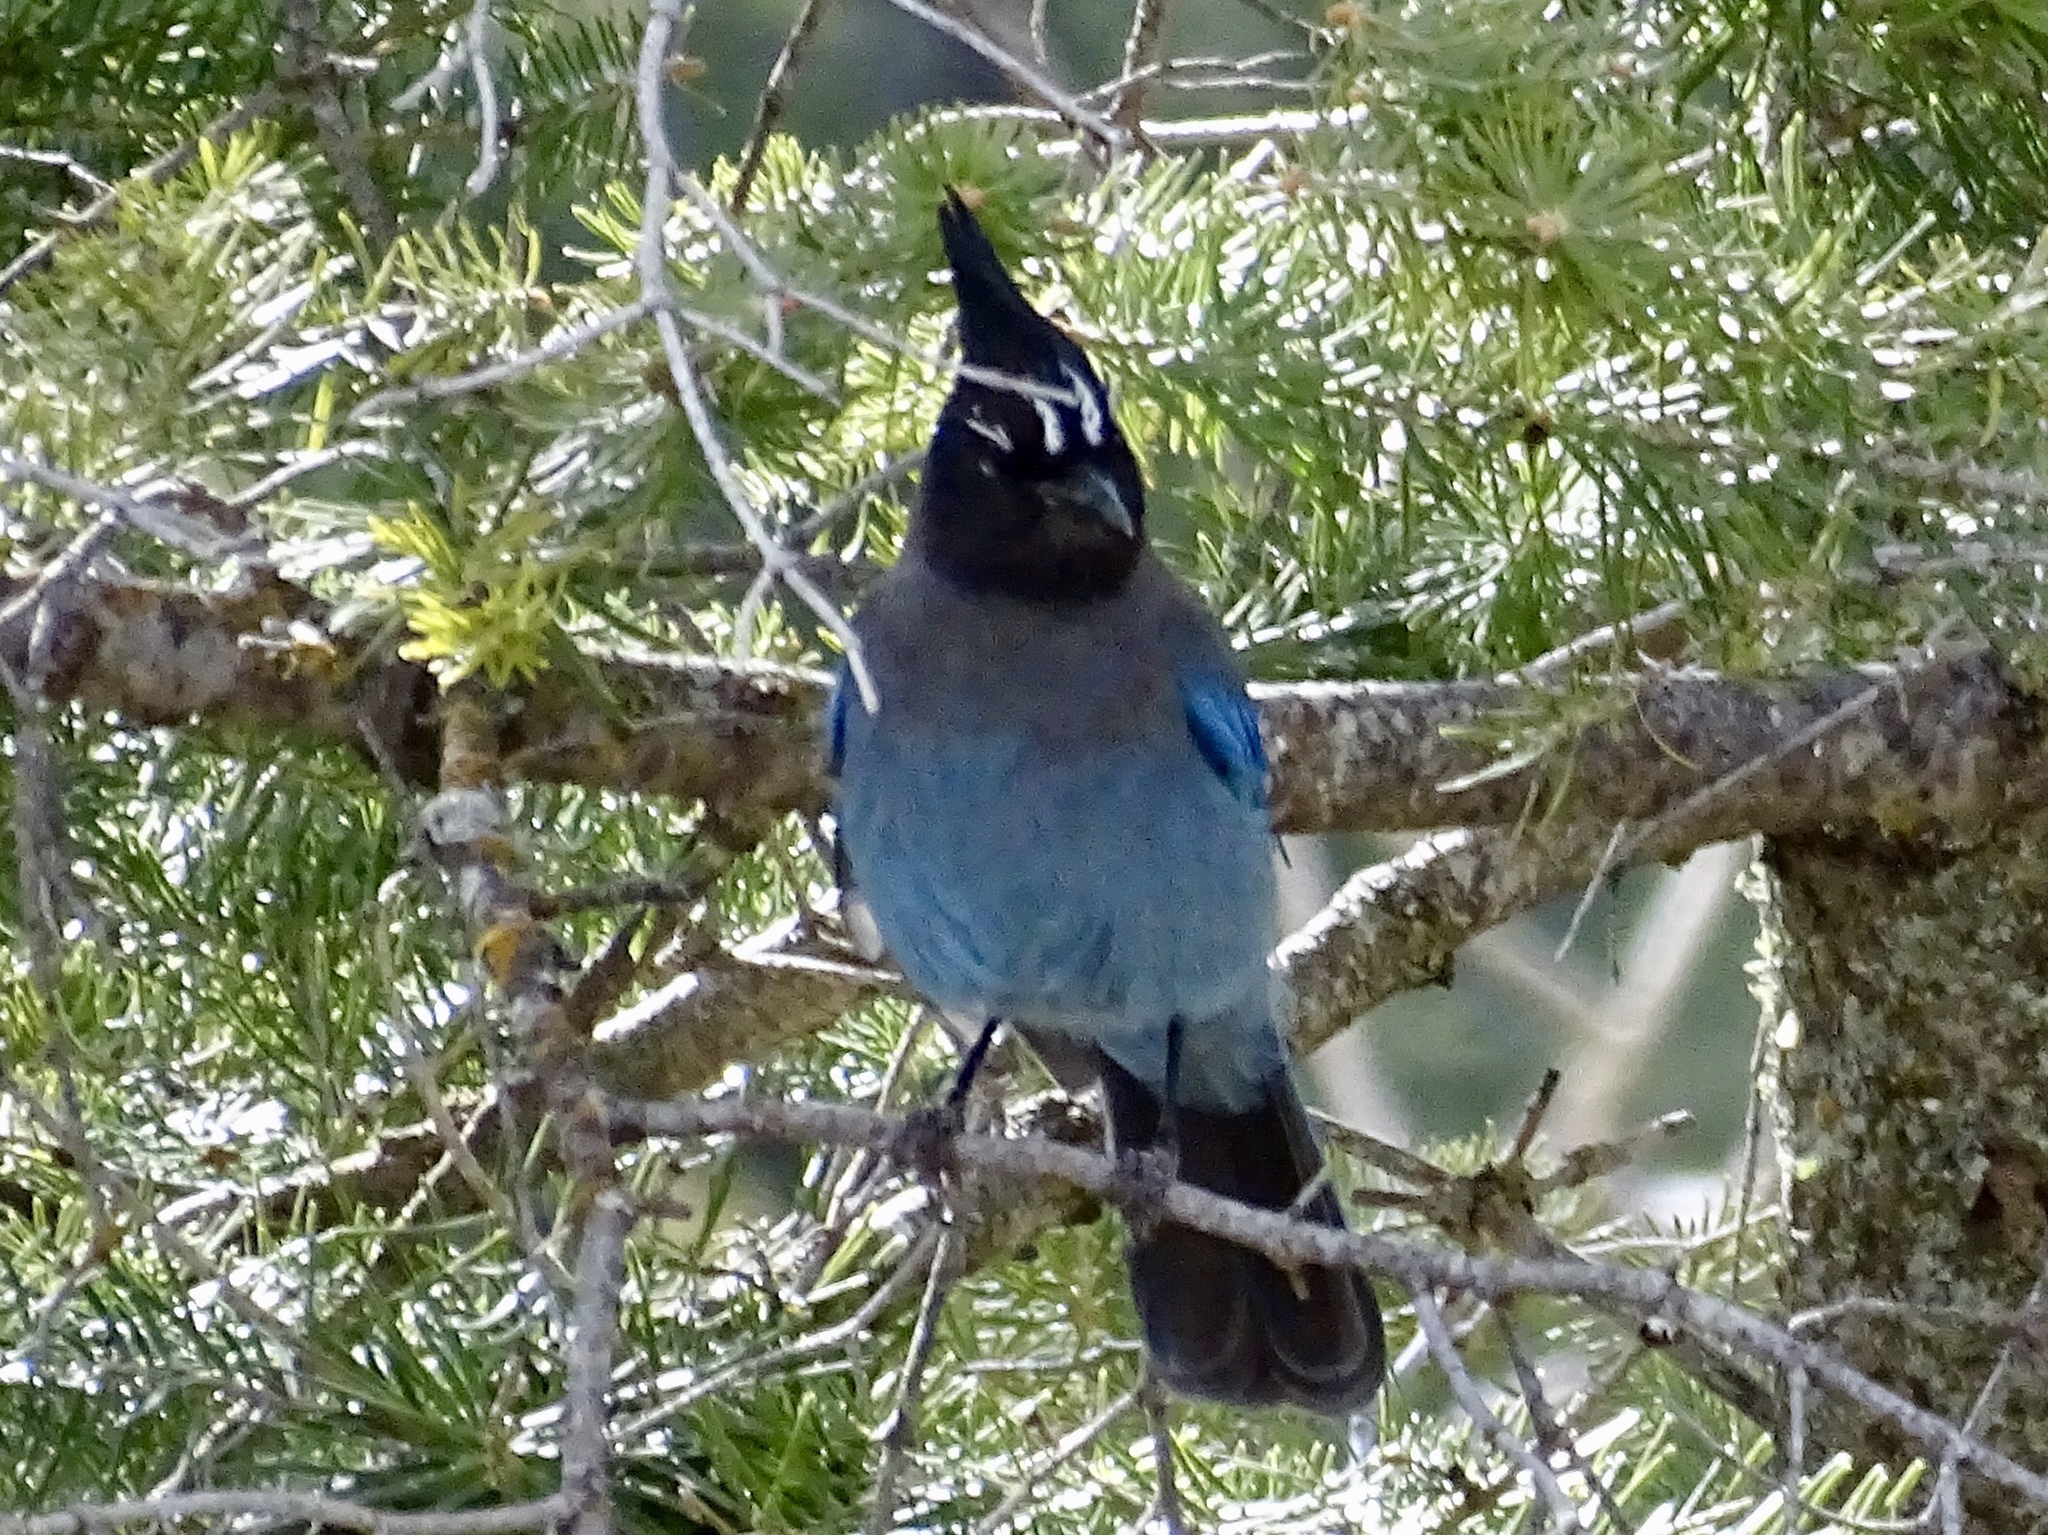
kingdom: Animalia
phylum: Chordata
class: Aves
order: Passeriformes
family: Corvidae
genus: Cyanocitta
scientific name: Cyanocitta stelleri
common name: Steller's jay
